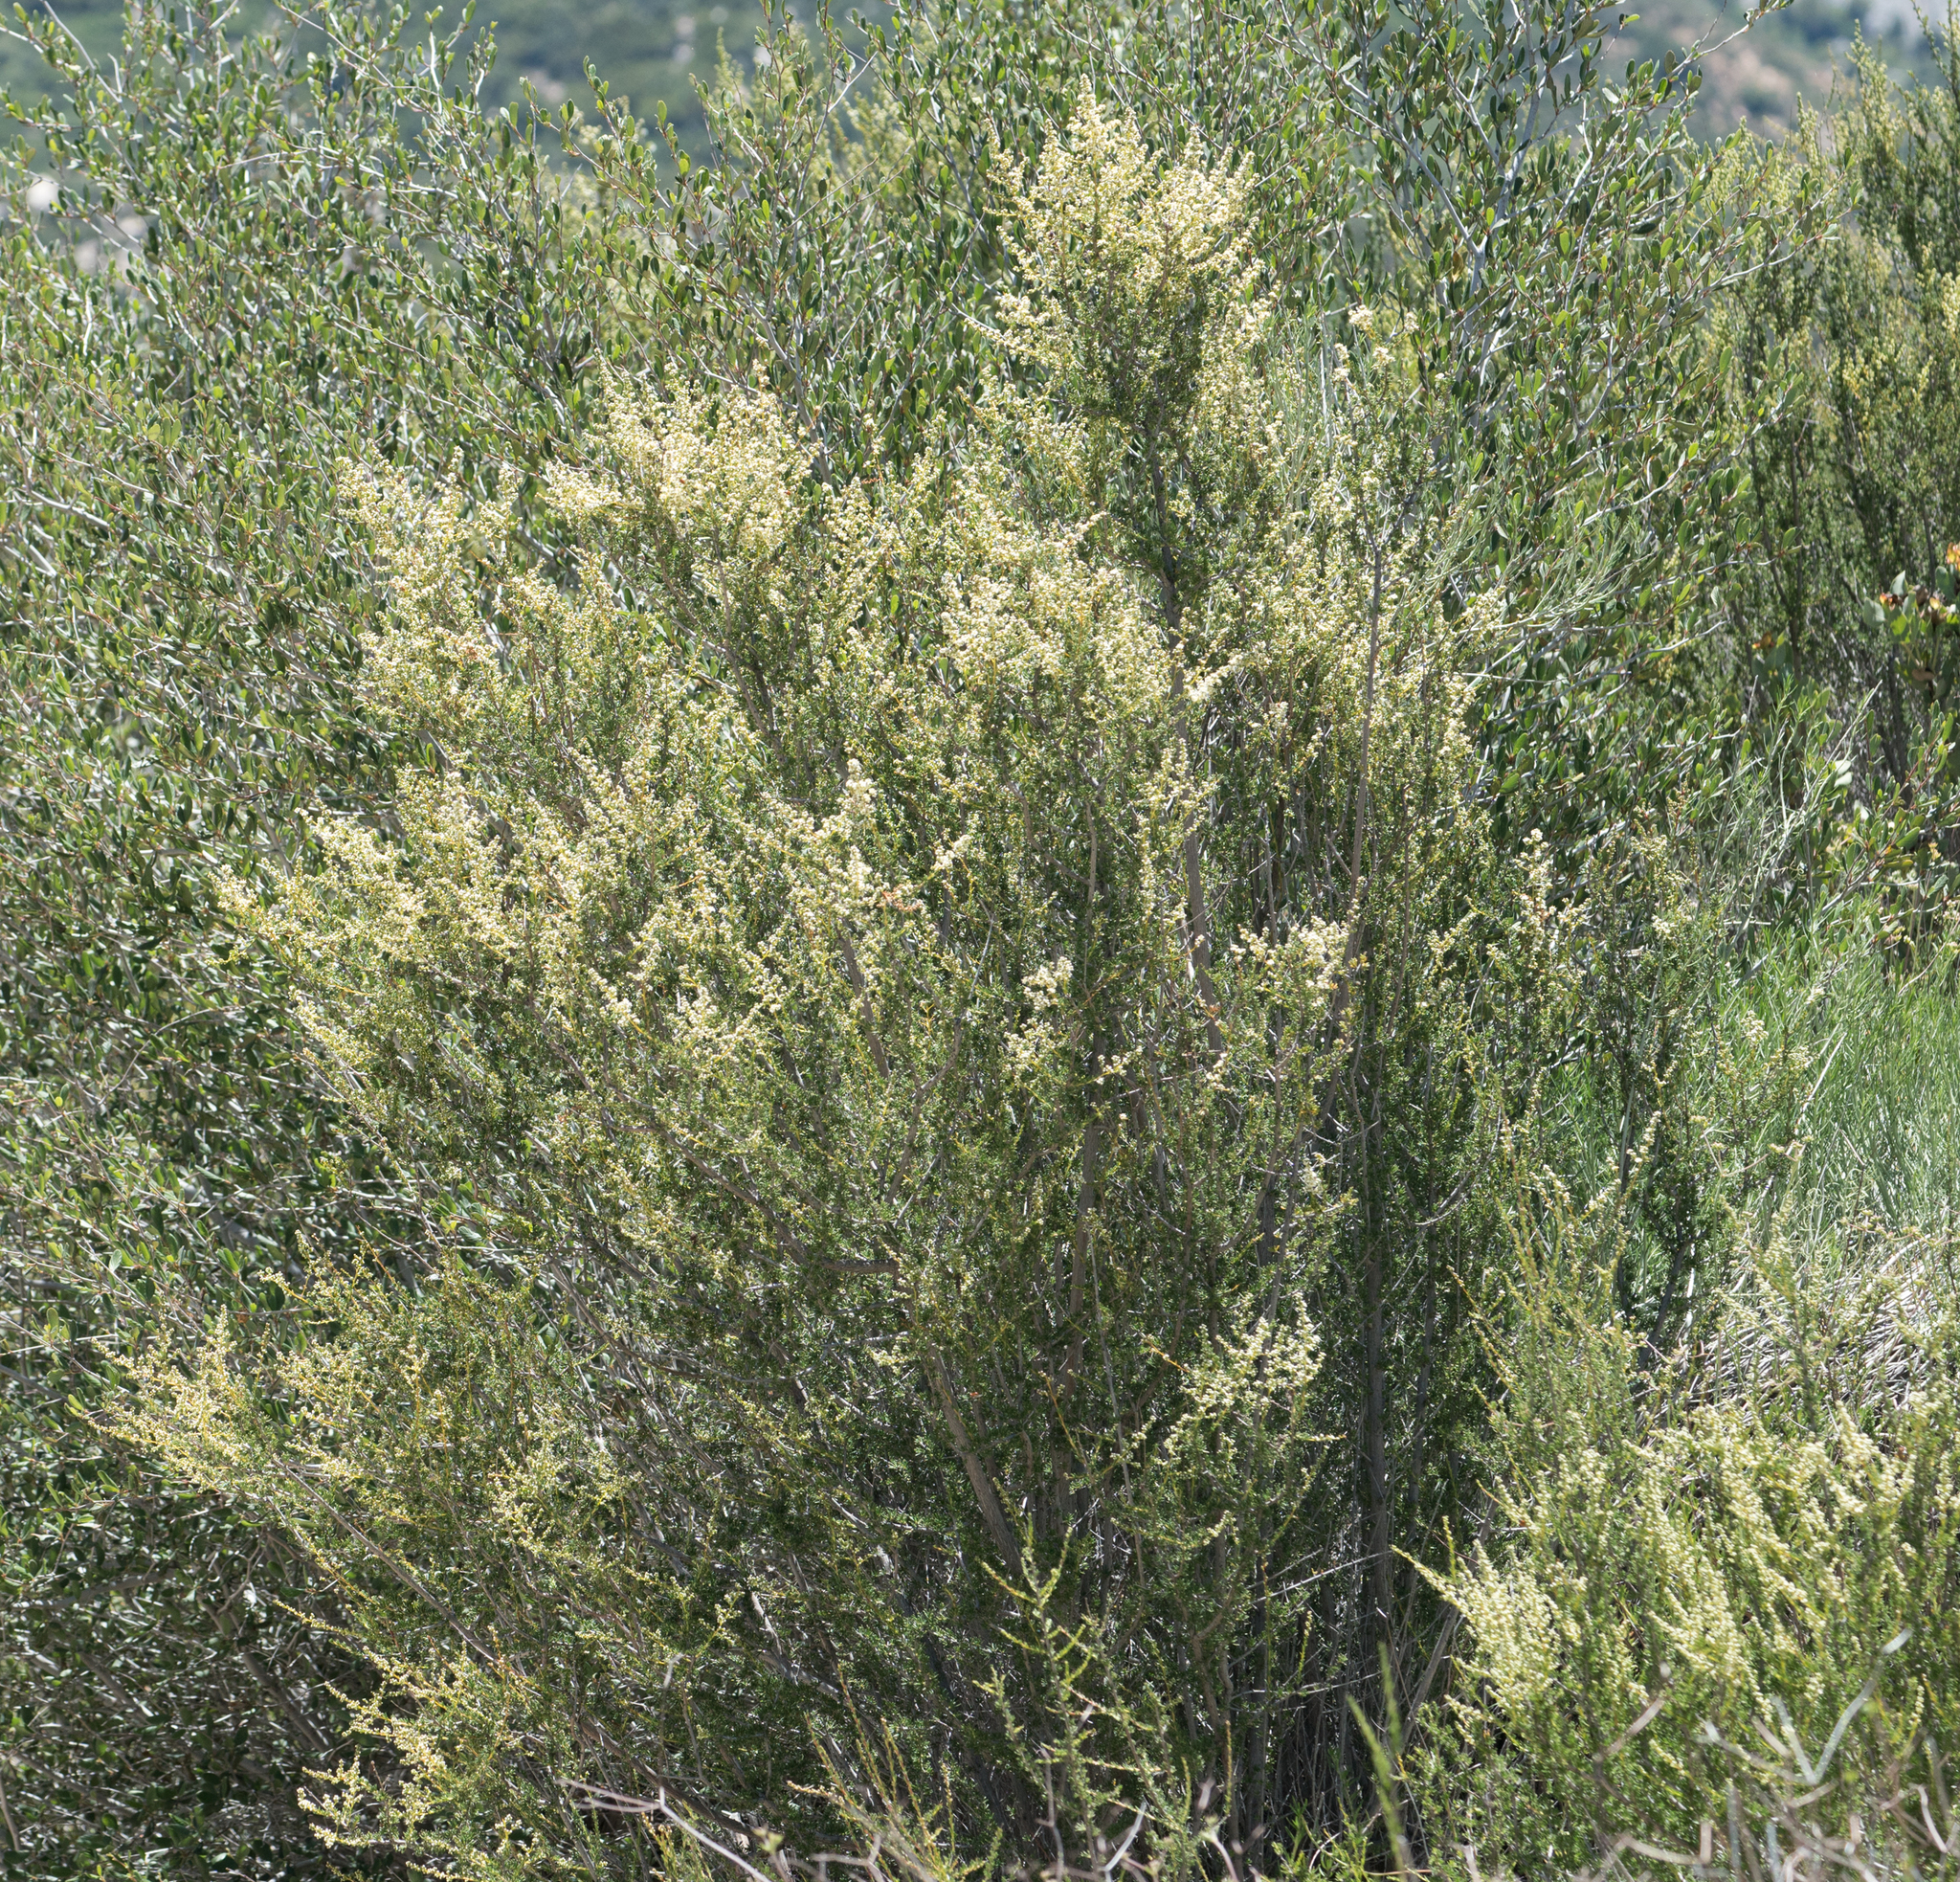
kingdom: Plantae
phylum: Tracheophyta
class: Magnoliopsida
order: Rosales
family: Rosaceae
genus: Adenostoma
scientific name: Adenostoma fasciculatum
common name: Chamise
